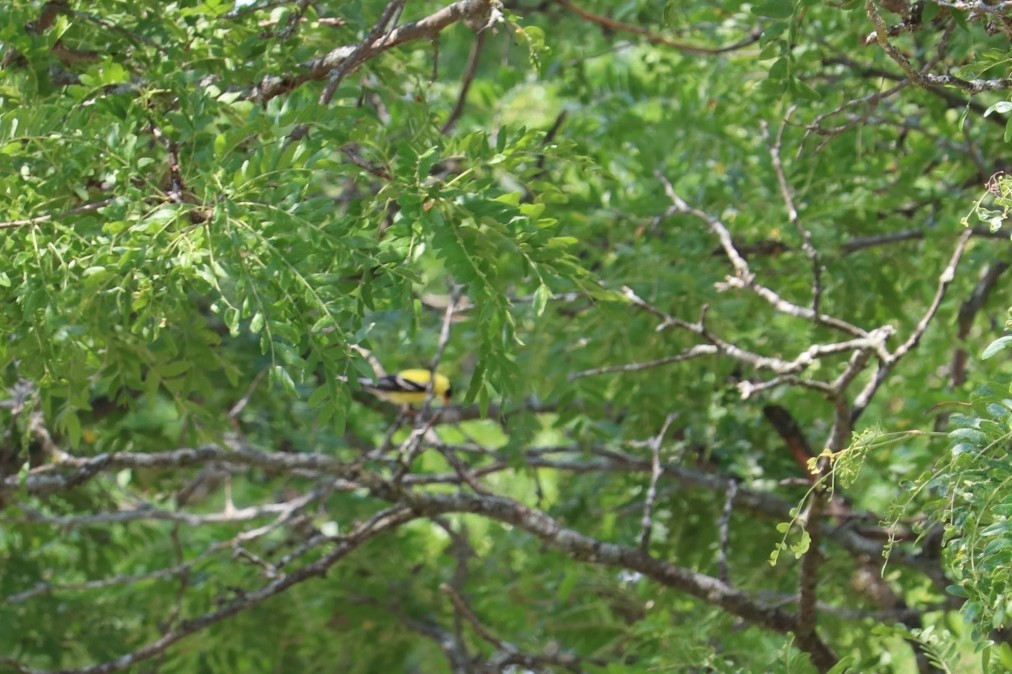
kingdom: Animalia
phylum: Chordata
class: Aves
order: Passeriformes
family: Fringillidae
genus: Spinus
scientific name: Spinus tristis
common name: American goldfinch
